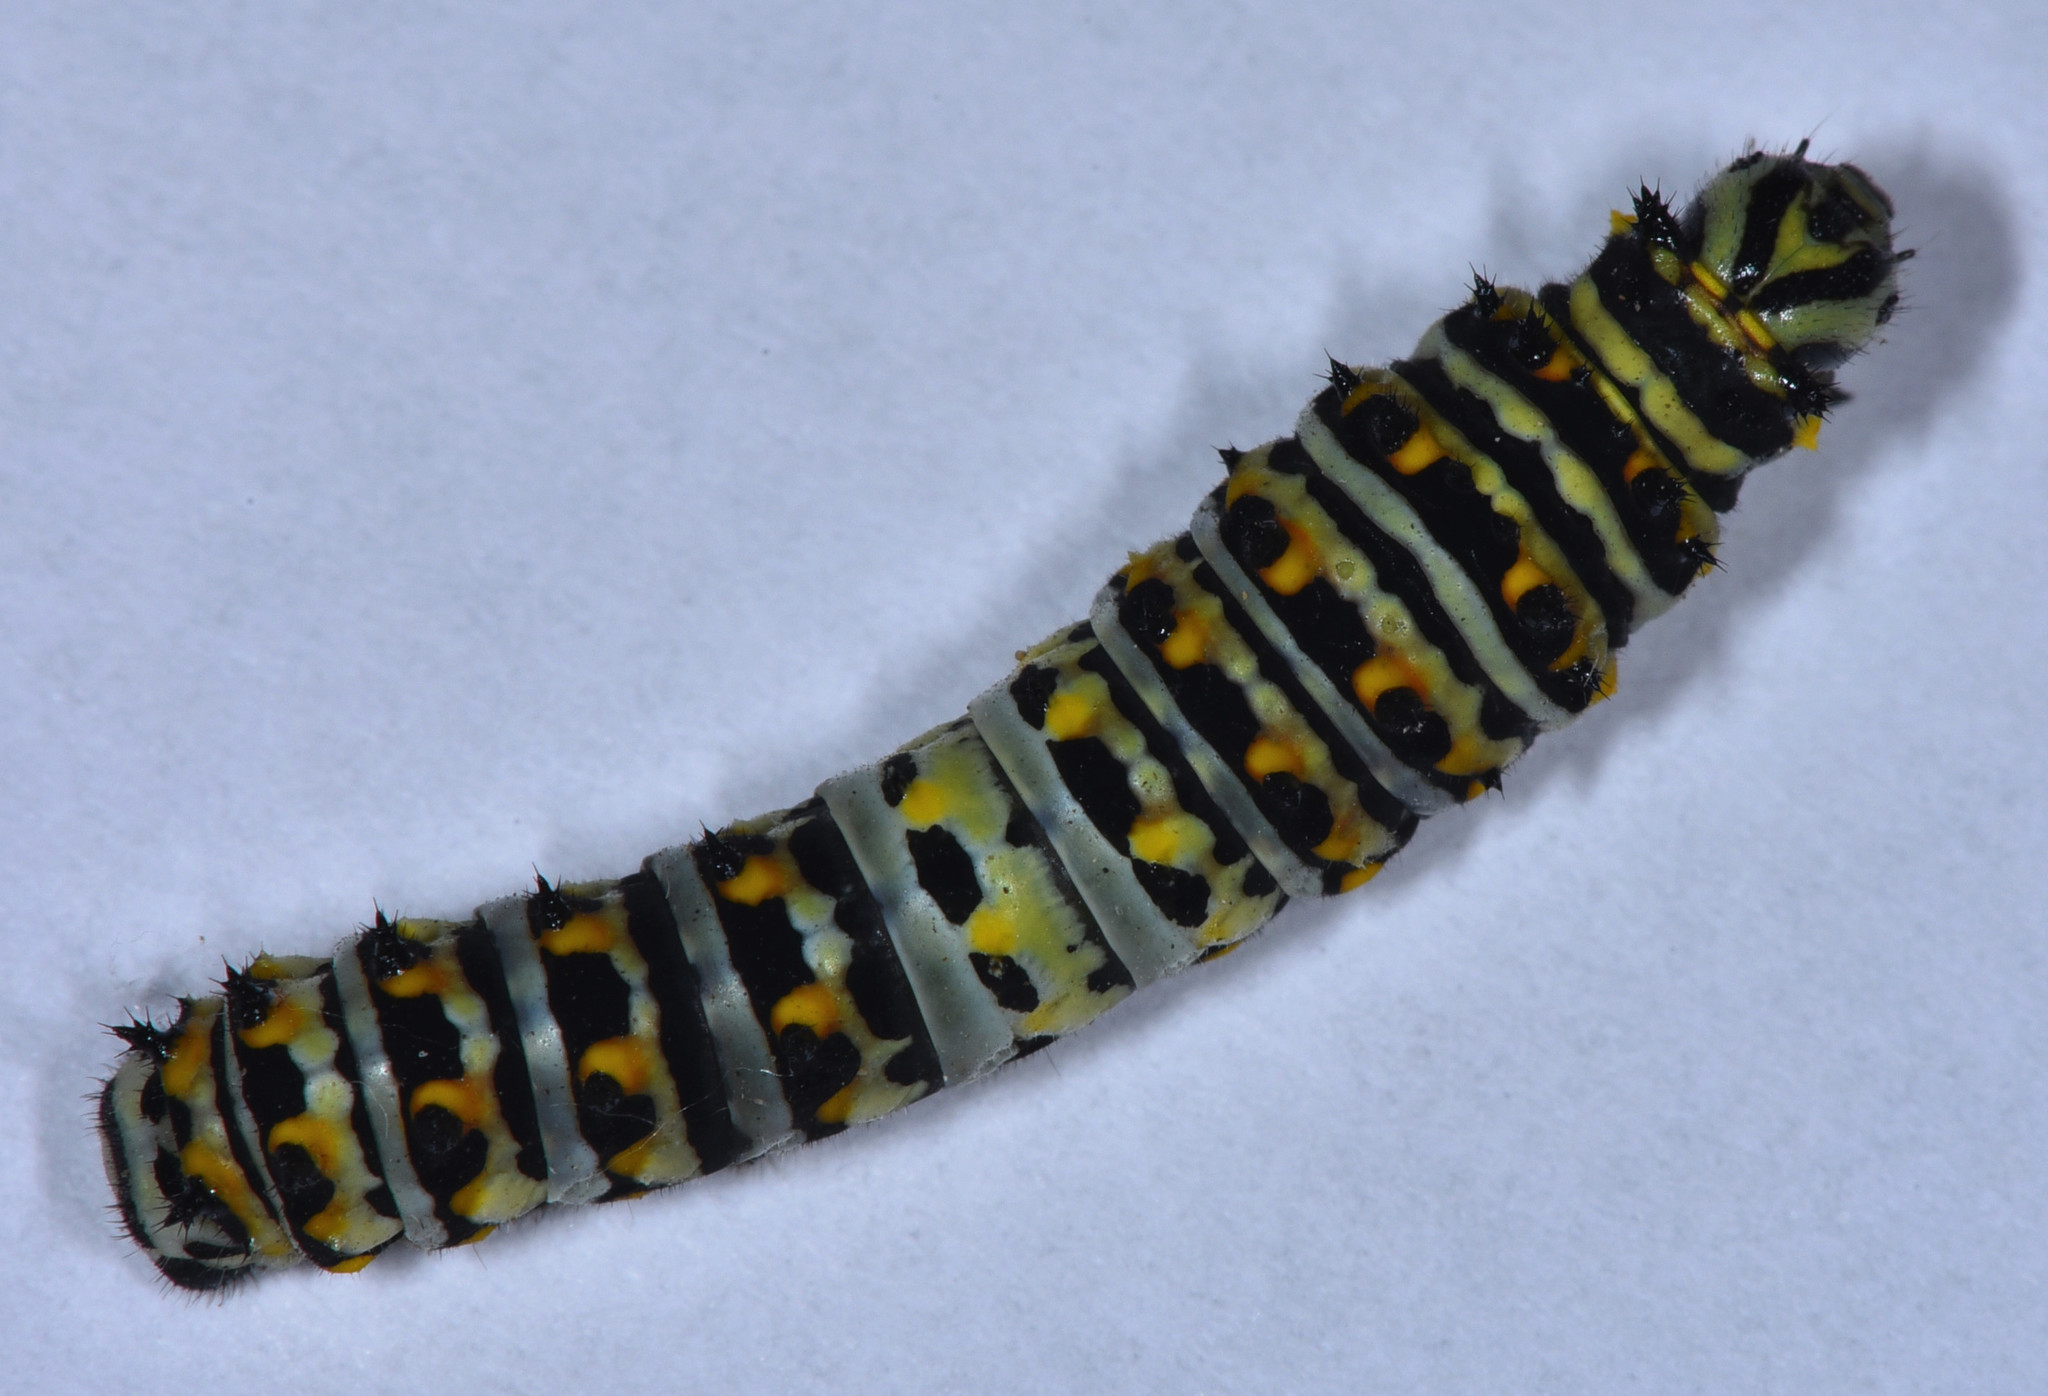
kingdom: Animalia
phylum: Arthropoda
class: Insecta
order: Lepidoptera
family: Papilionidae
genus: Papilio
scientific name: Papilio zelicaon
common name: Anise swallowtail
